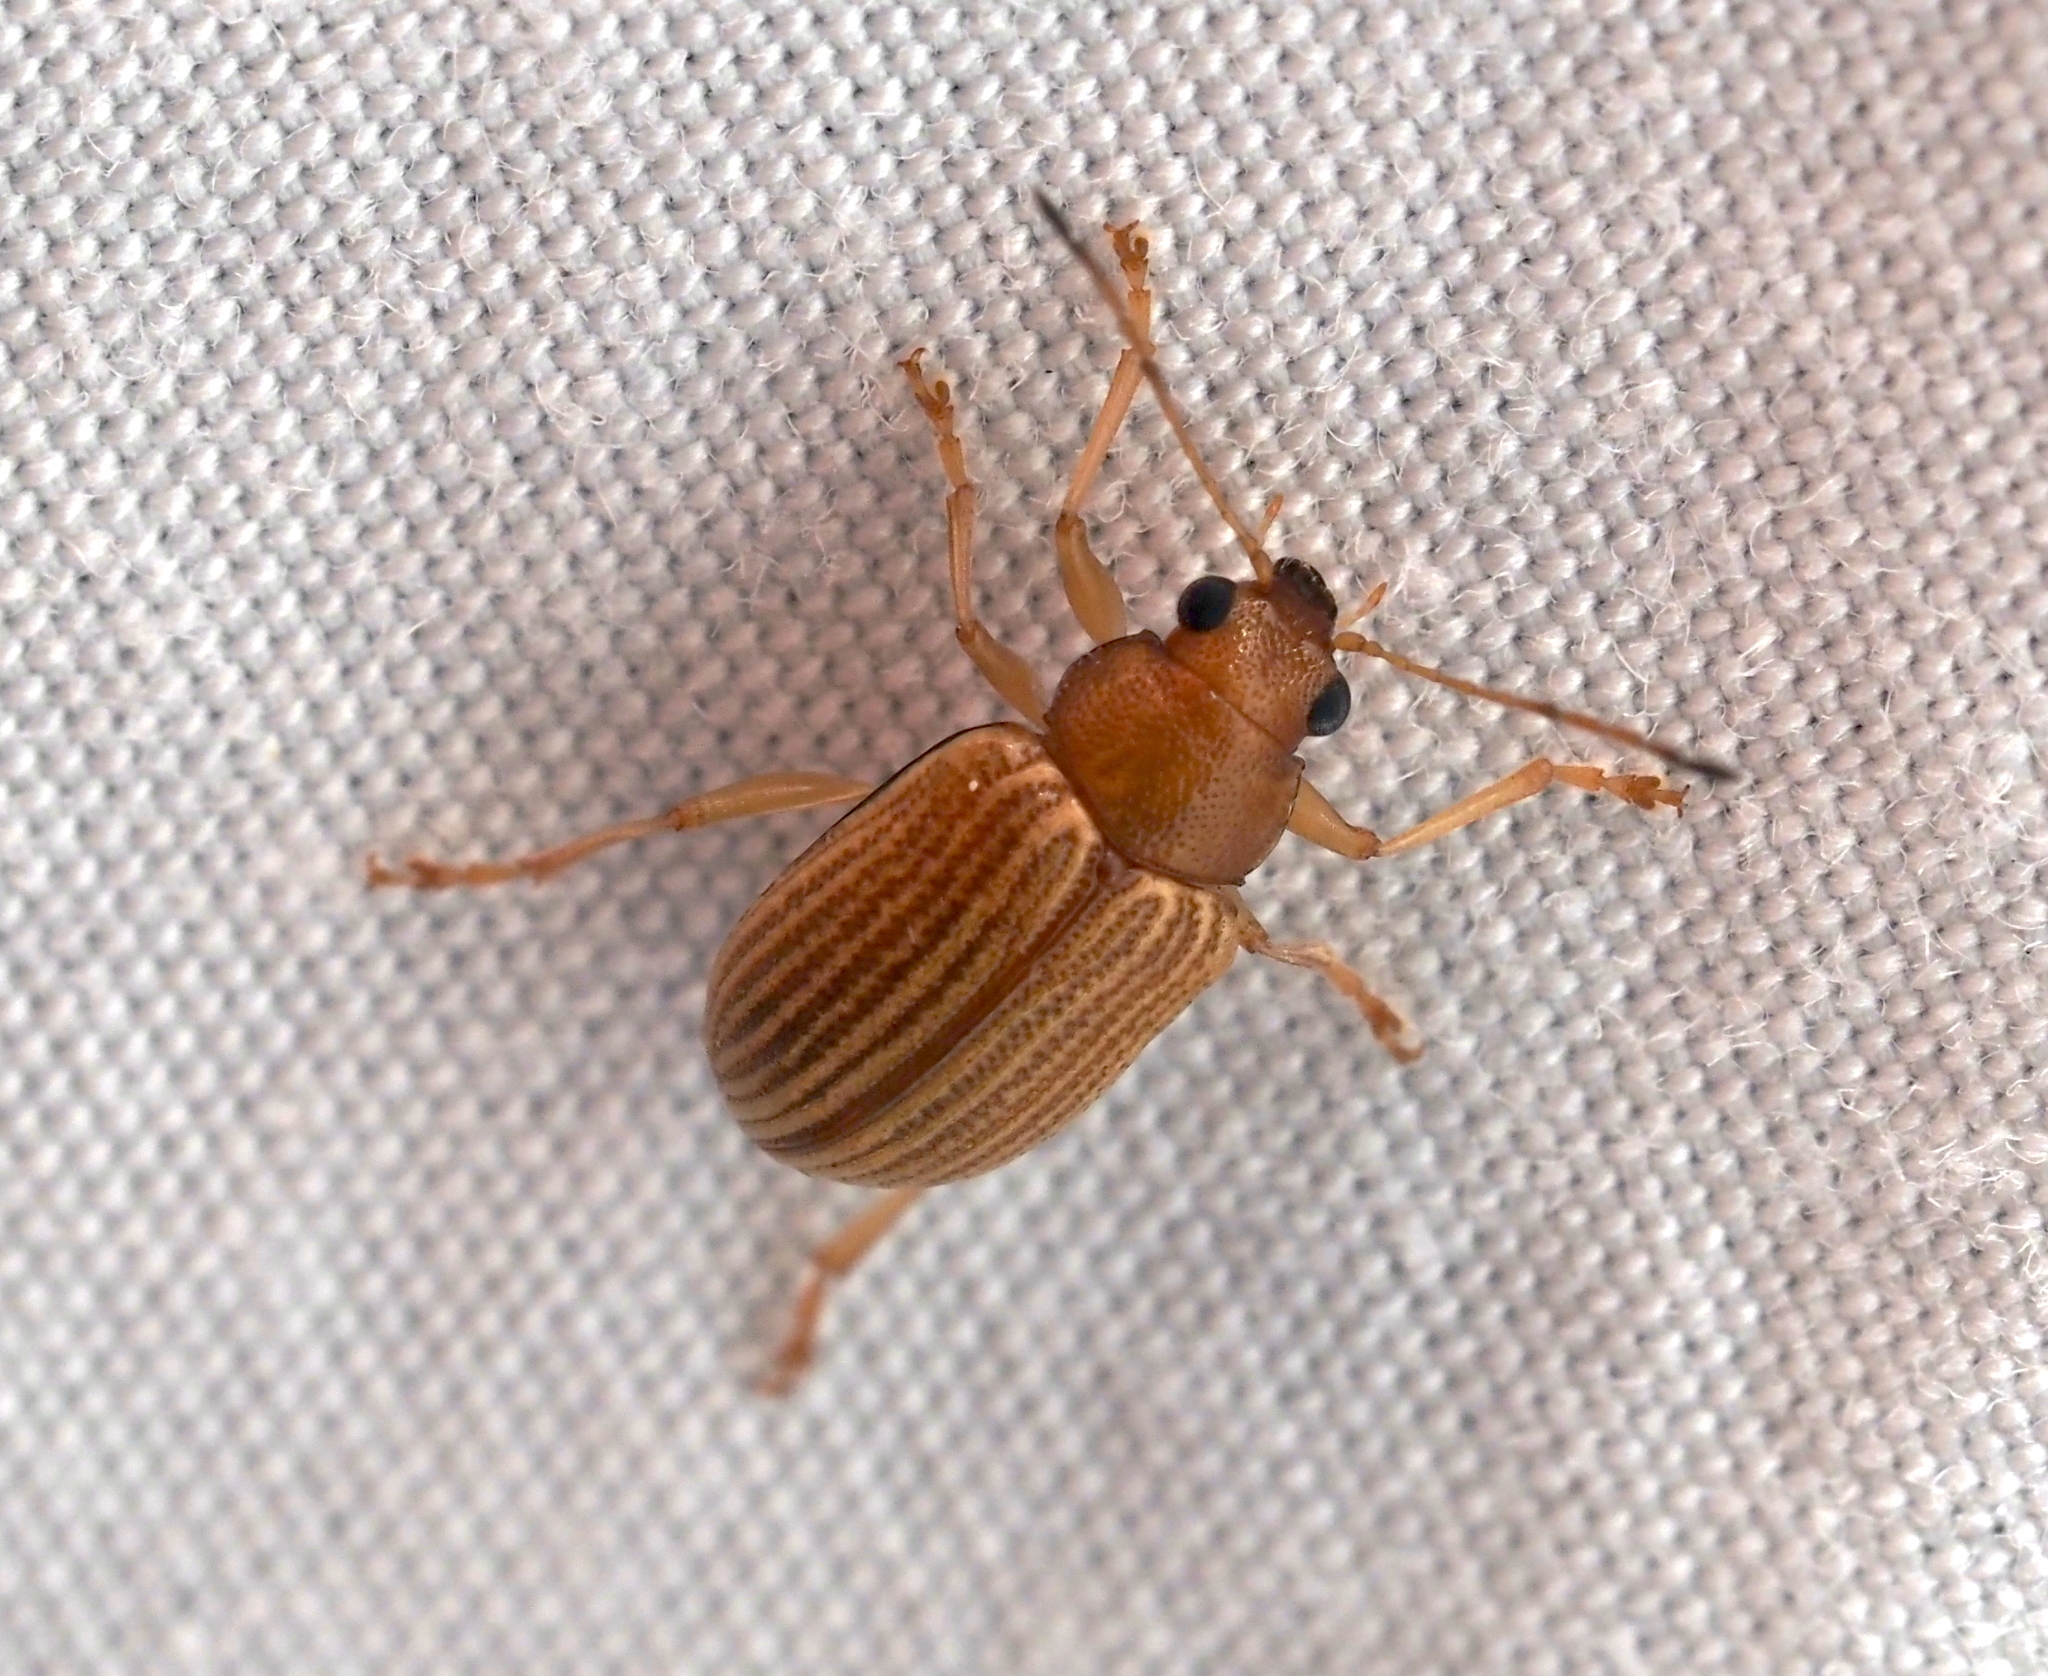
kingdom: Animalia
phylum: Arthropoda
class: Insecta
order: Coleoptera
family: Chrysomelidae
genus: Colaspis
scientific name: Colaspis brunnea
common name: Grape colaspis
